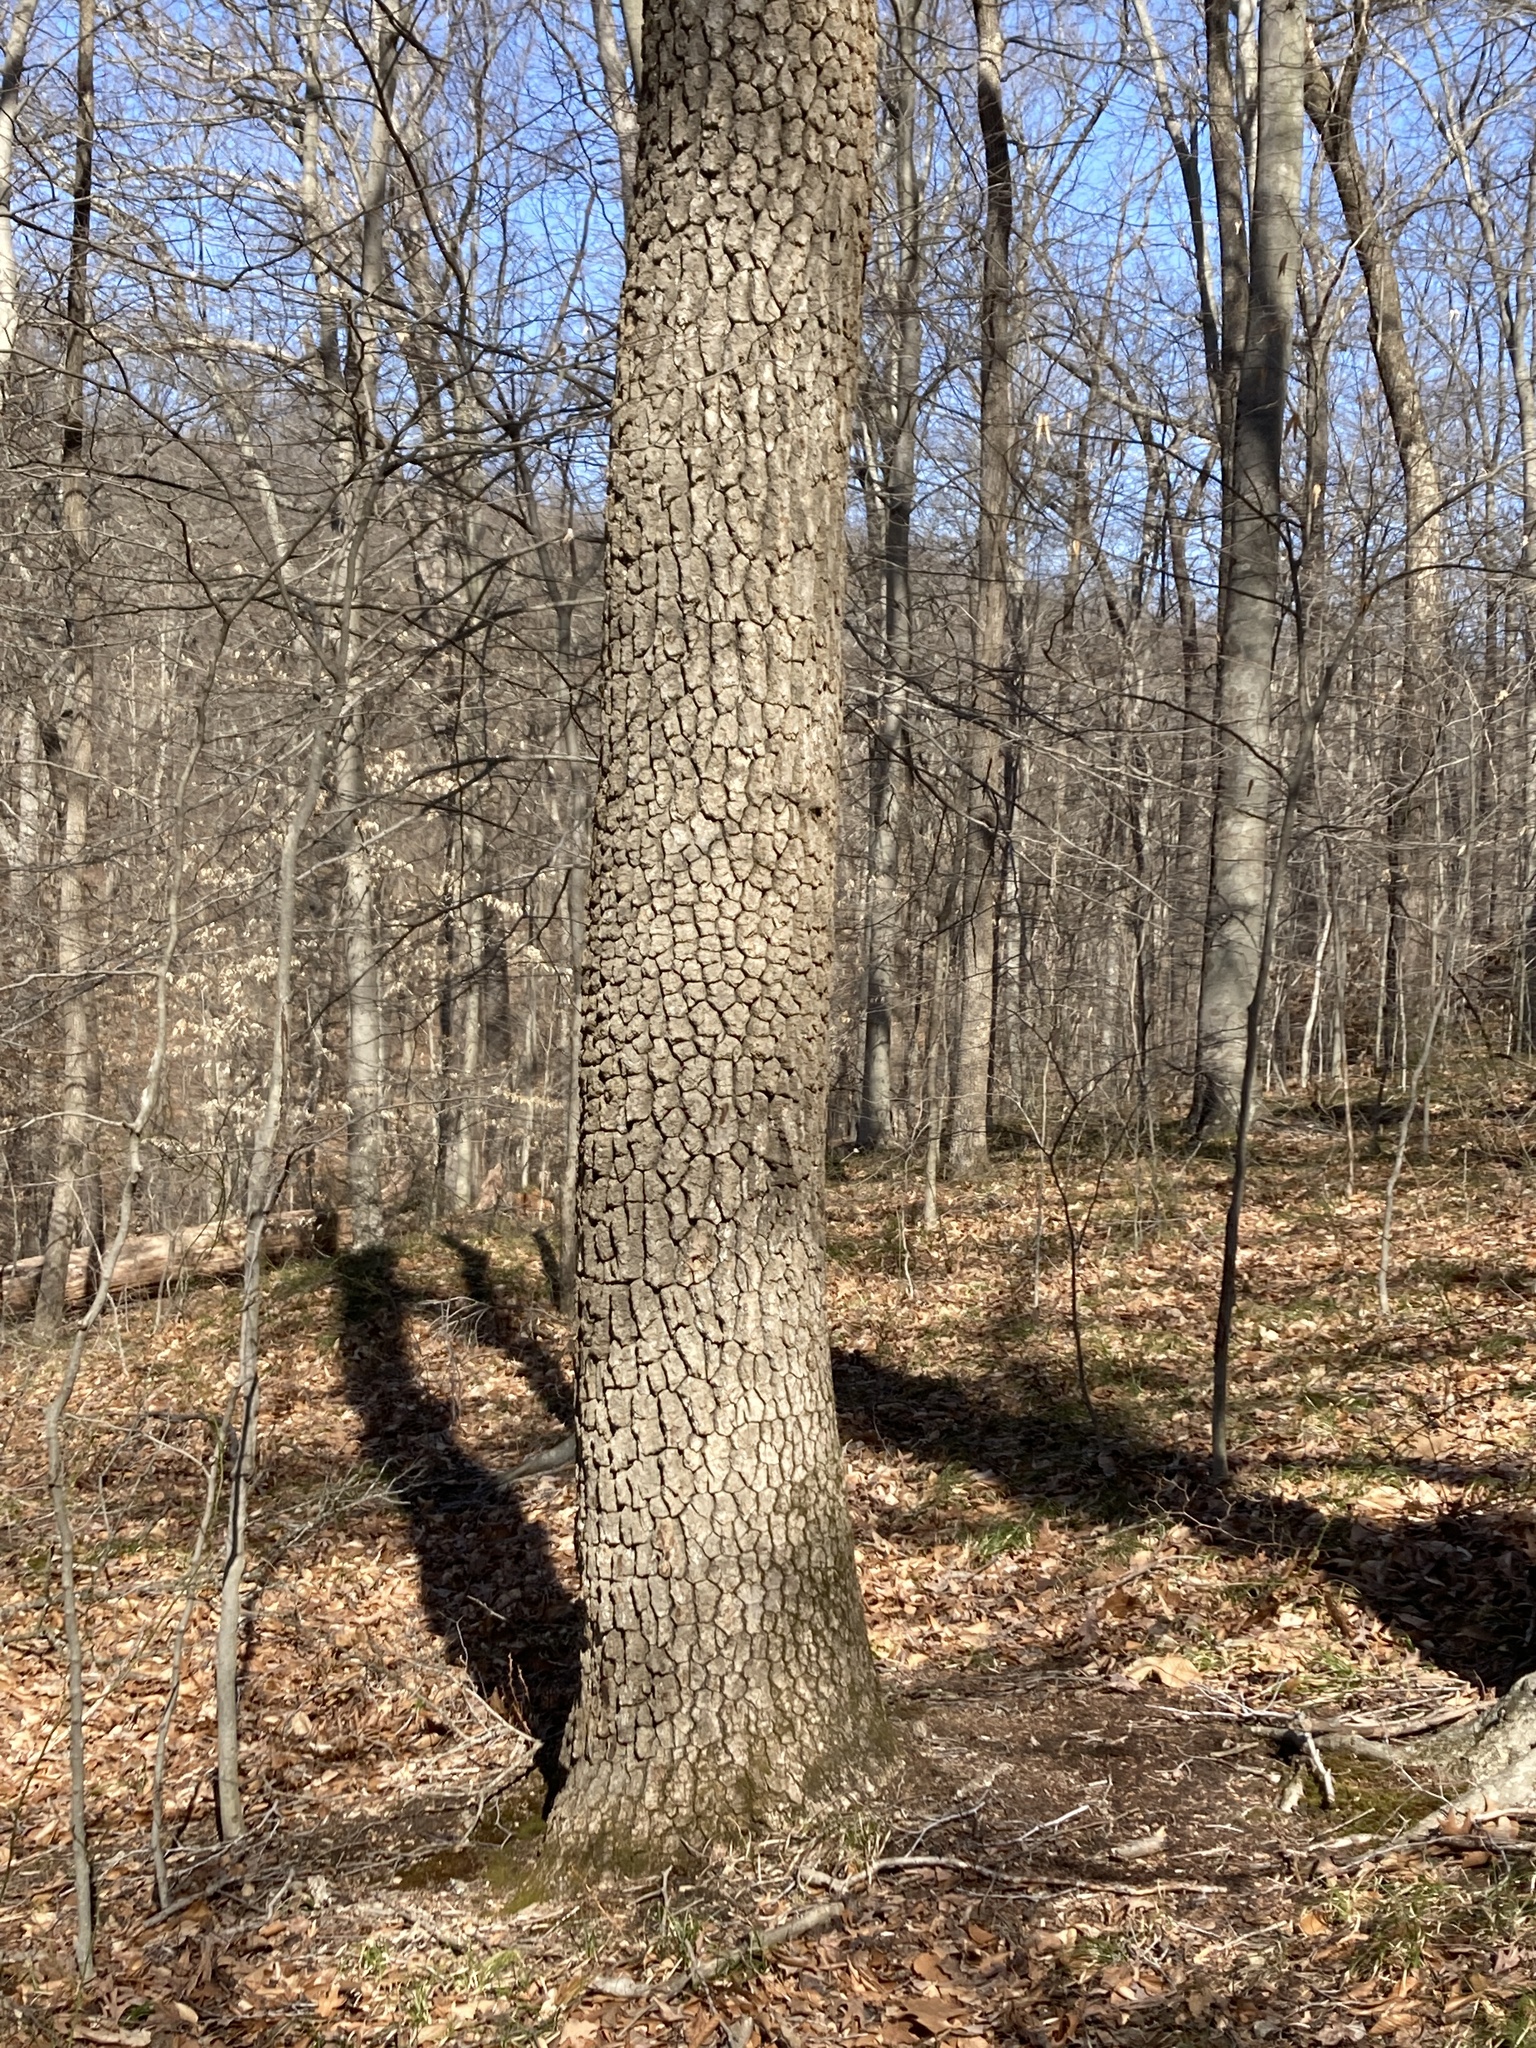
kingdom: Plantae
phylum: Tracheophyta
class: Magnoliopsida
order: Ericales
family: Ebenaceae
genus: Diospyros
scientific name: Diospyros virginiana
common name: Persimmon
